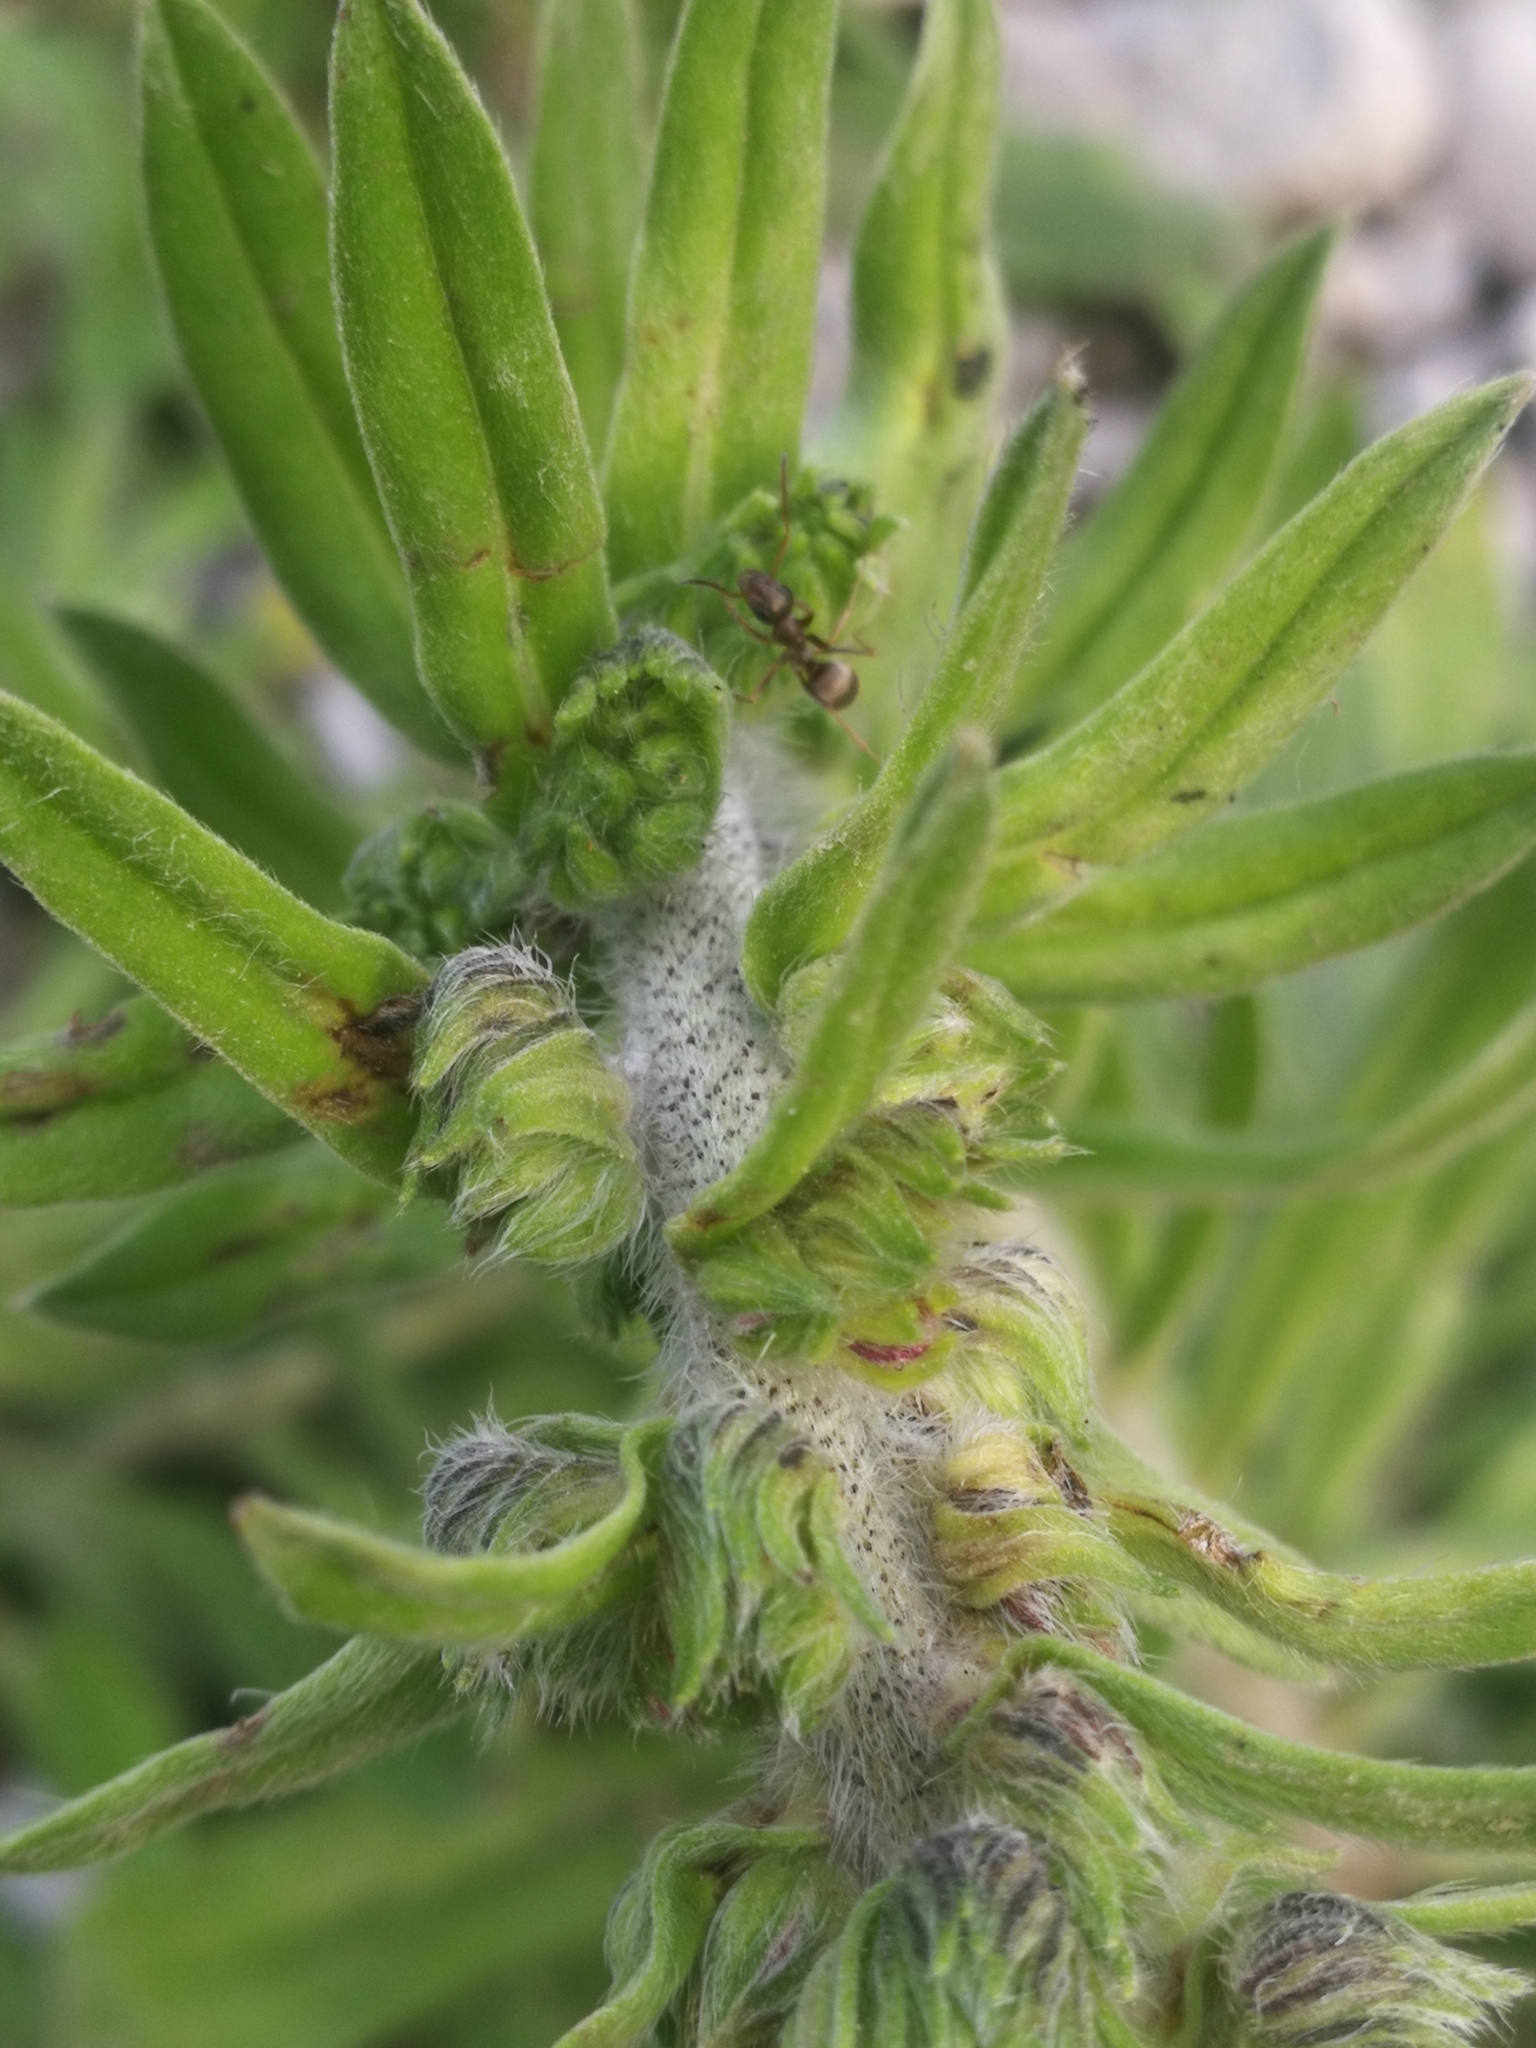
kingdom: Plantae
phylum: Tracheophyta
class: Magnoliopsida
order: Boraginales
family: Boraginaceae
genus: Echium
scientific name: Echium vulgare
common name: Common viper's bugloss
